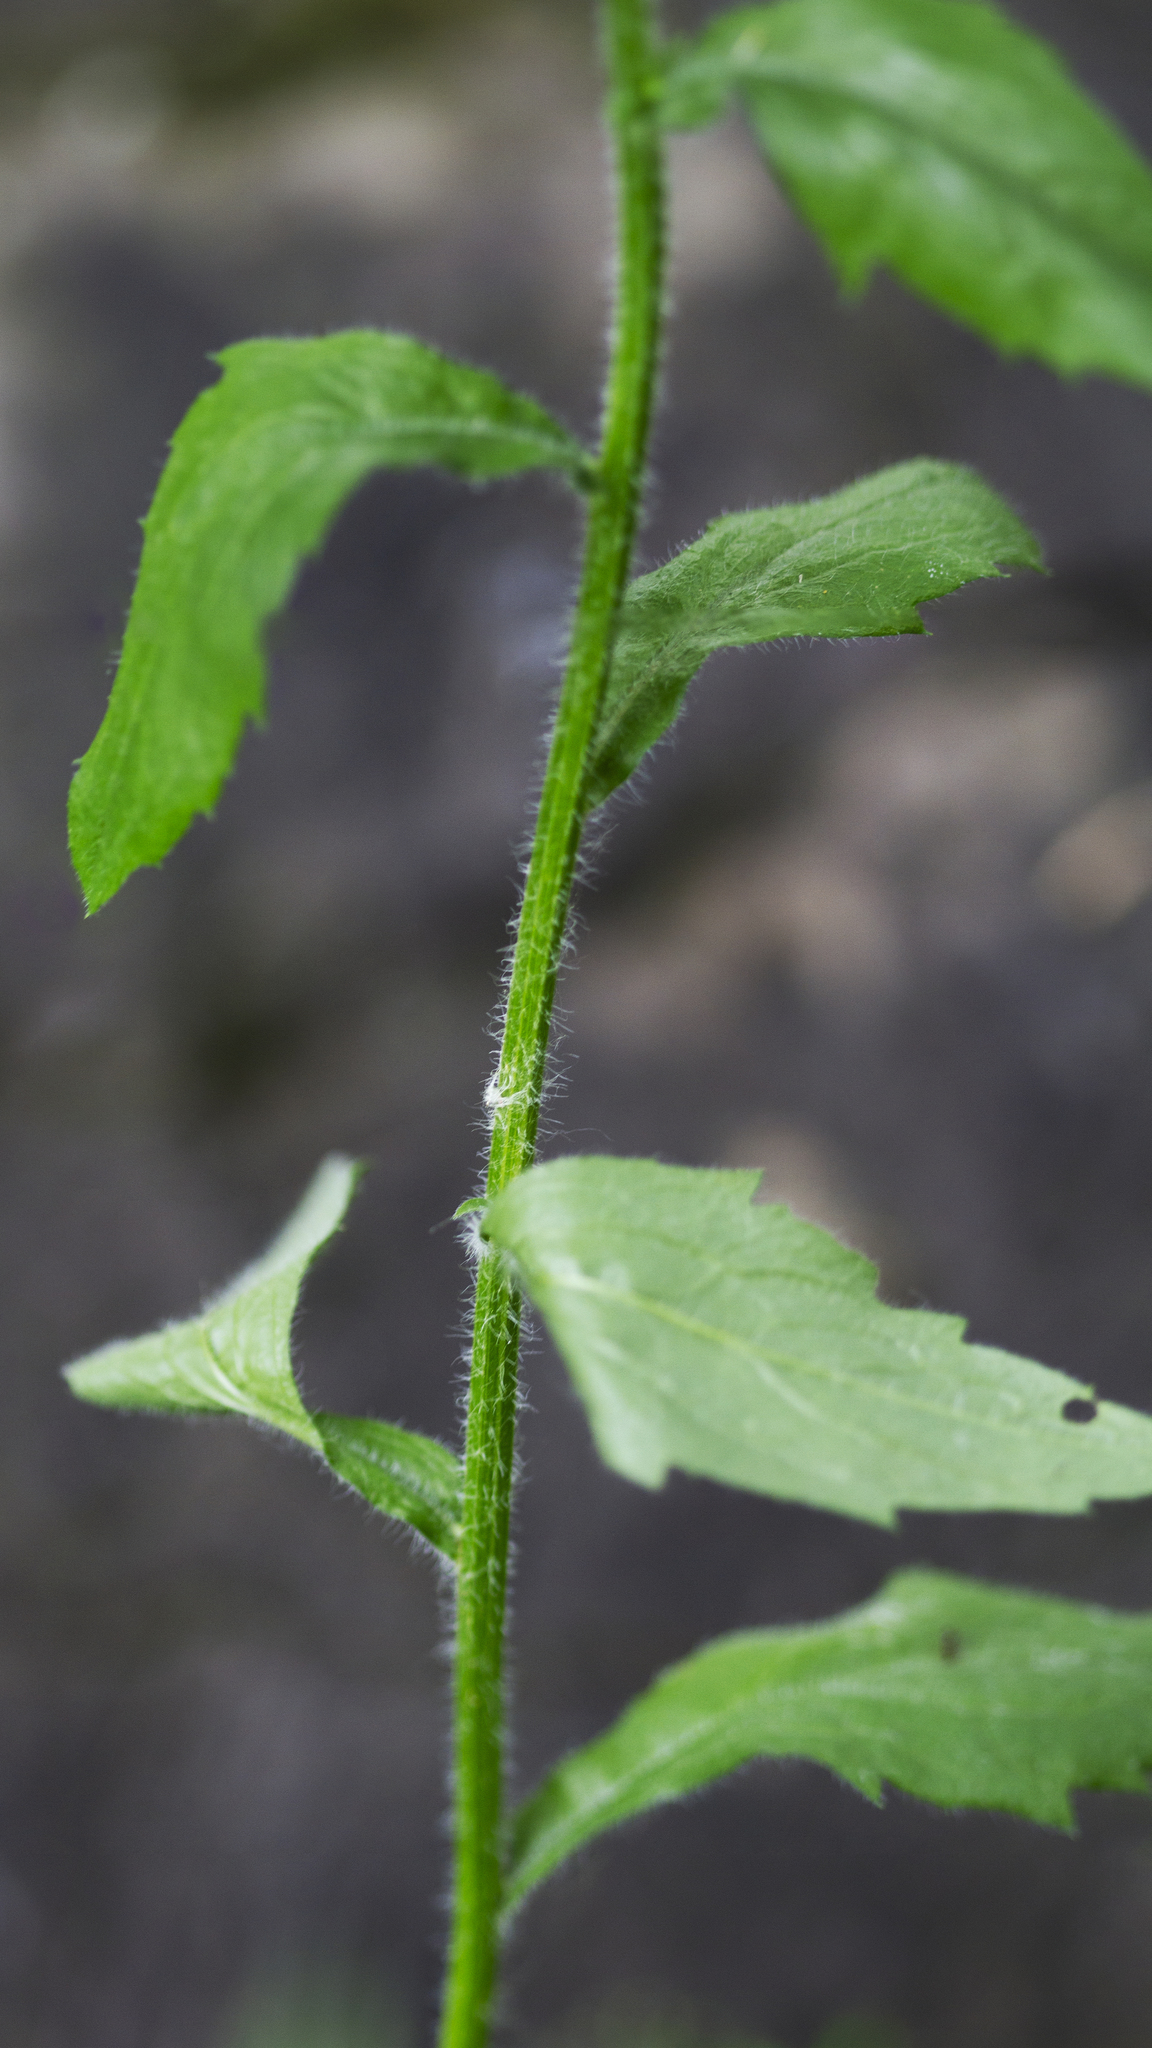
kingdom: Plantae
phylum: Tracheophyta
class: Magnoliopsida
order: Asterales
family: Asteraceae
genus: Erigeron
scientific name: Erigeron annuus
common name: Tall fleabane
